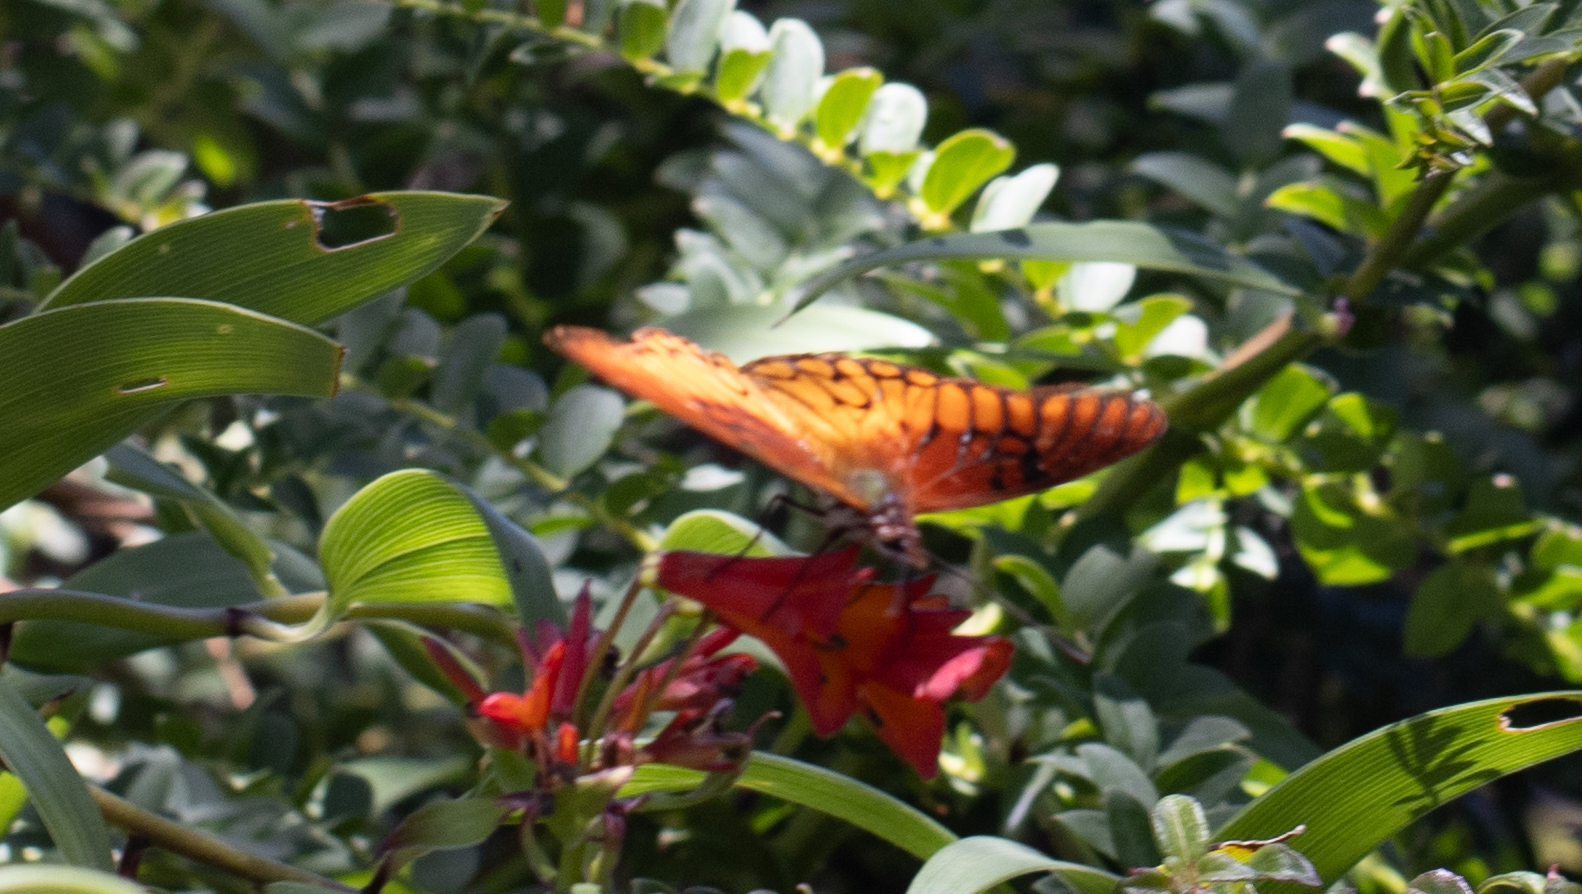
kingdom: Animalia
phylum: Arthropoda
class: Insecta
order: Lepidoptera
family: Nymphalidae
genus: Dione
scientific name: Dione moneta
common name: Mexican silverspot
